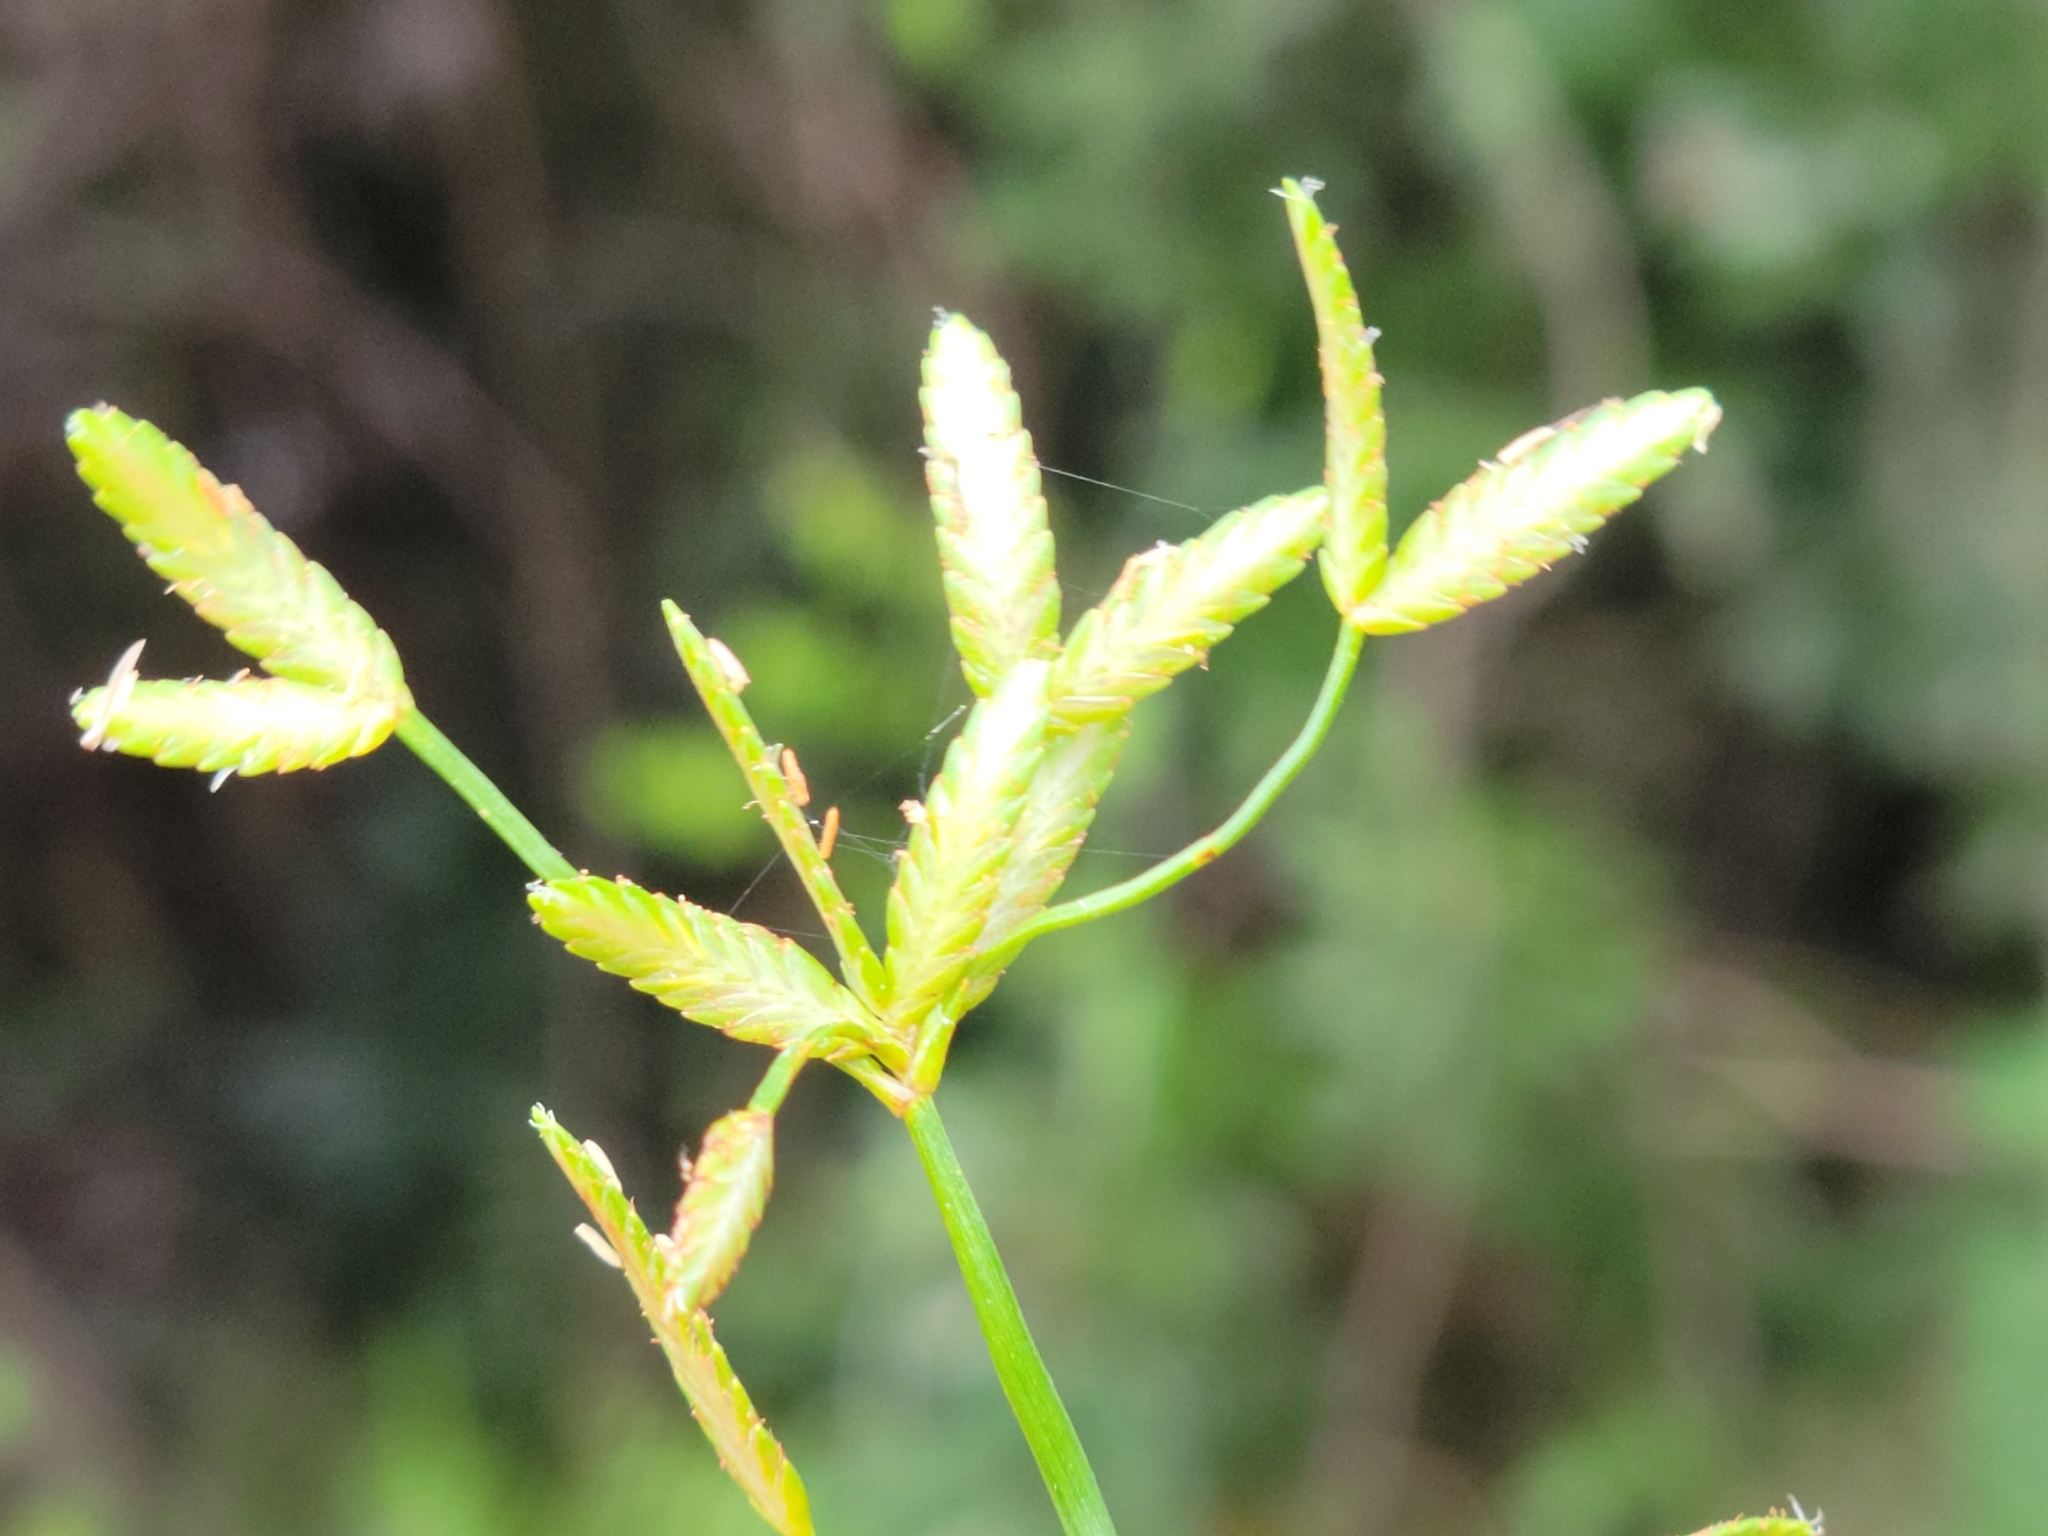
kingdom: Plantae
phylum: Tracheophyta
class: Liliopsida
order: Poales
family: Cyperaceae
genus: Cyperus
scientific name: Cyperus lecontei
